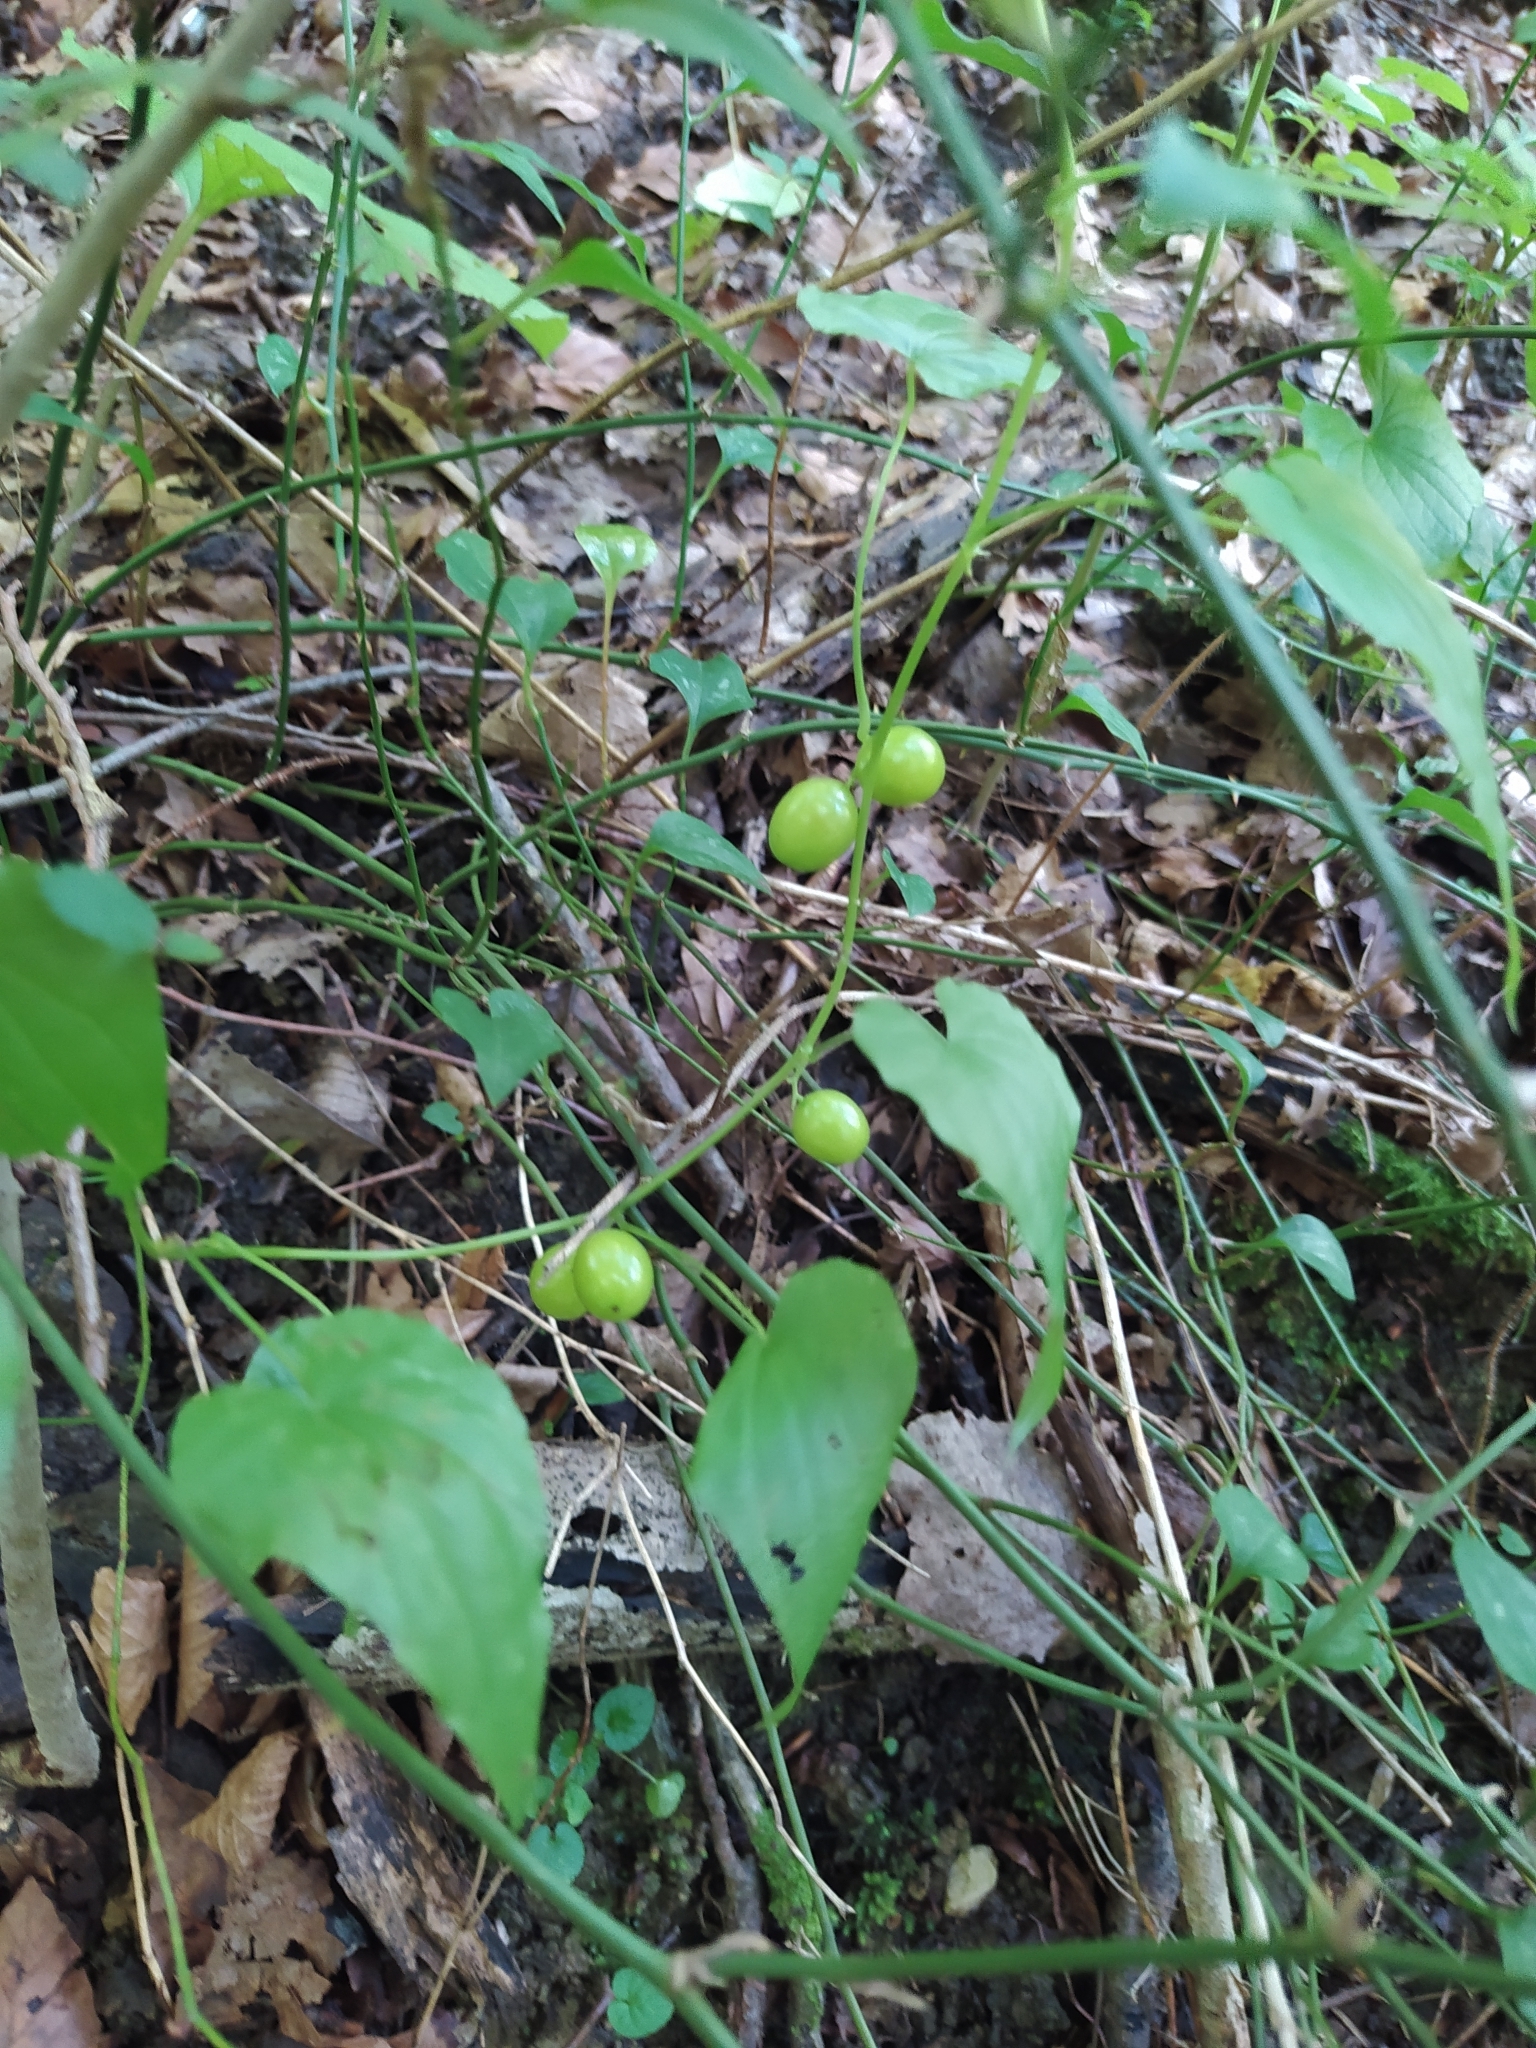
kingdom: Plantae
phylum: Tracheophyta
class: Liliopsida
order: Dioscoreales
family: Dioscoreaceae
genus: Dioscorea
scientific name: Dioscorea communis
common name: Black-bindweed
